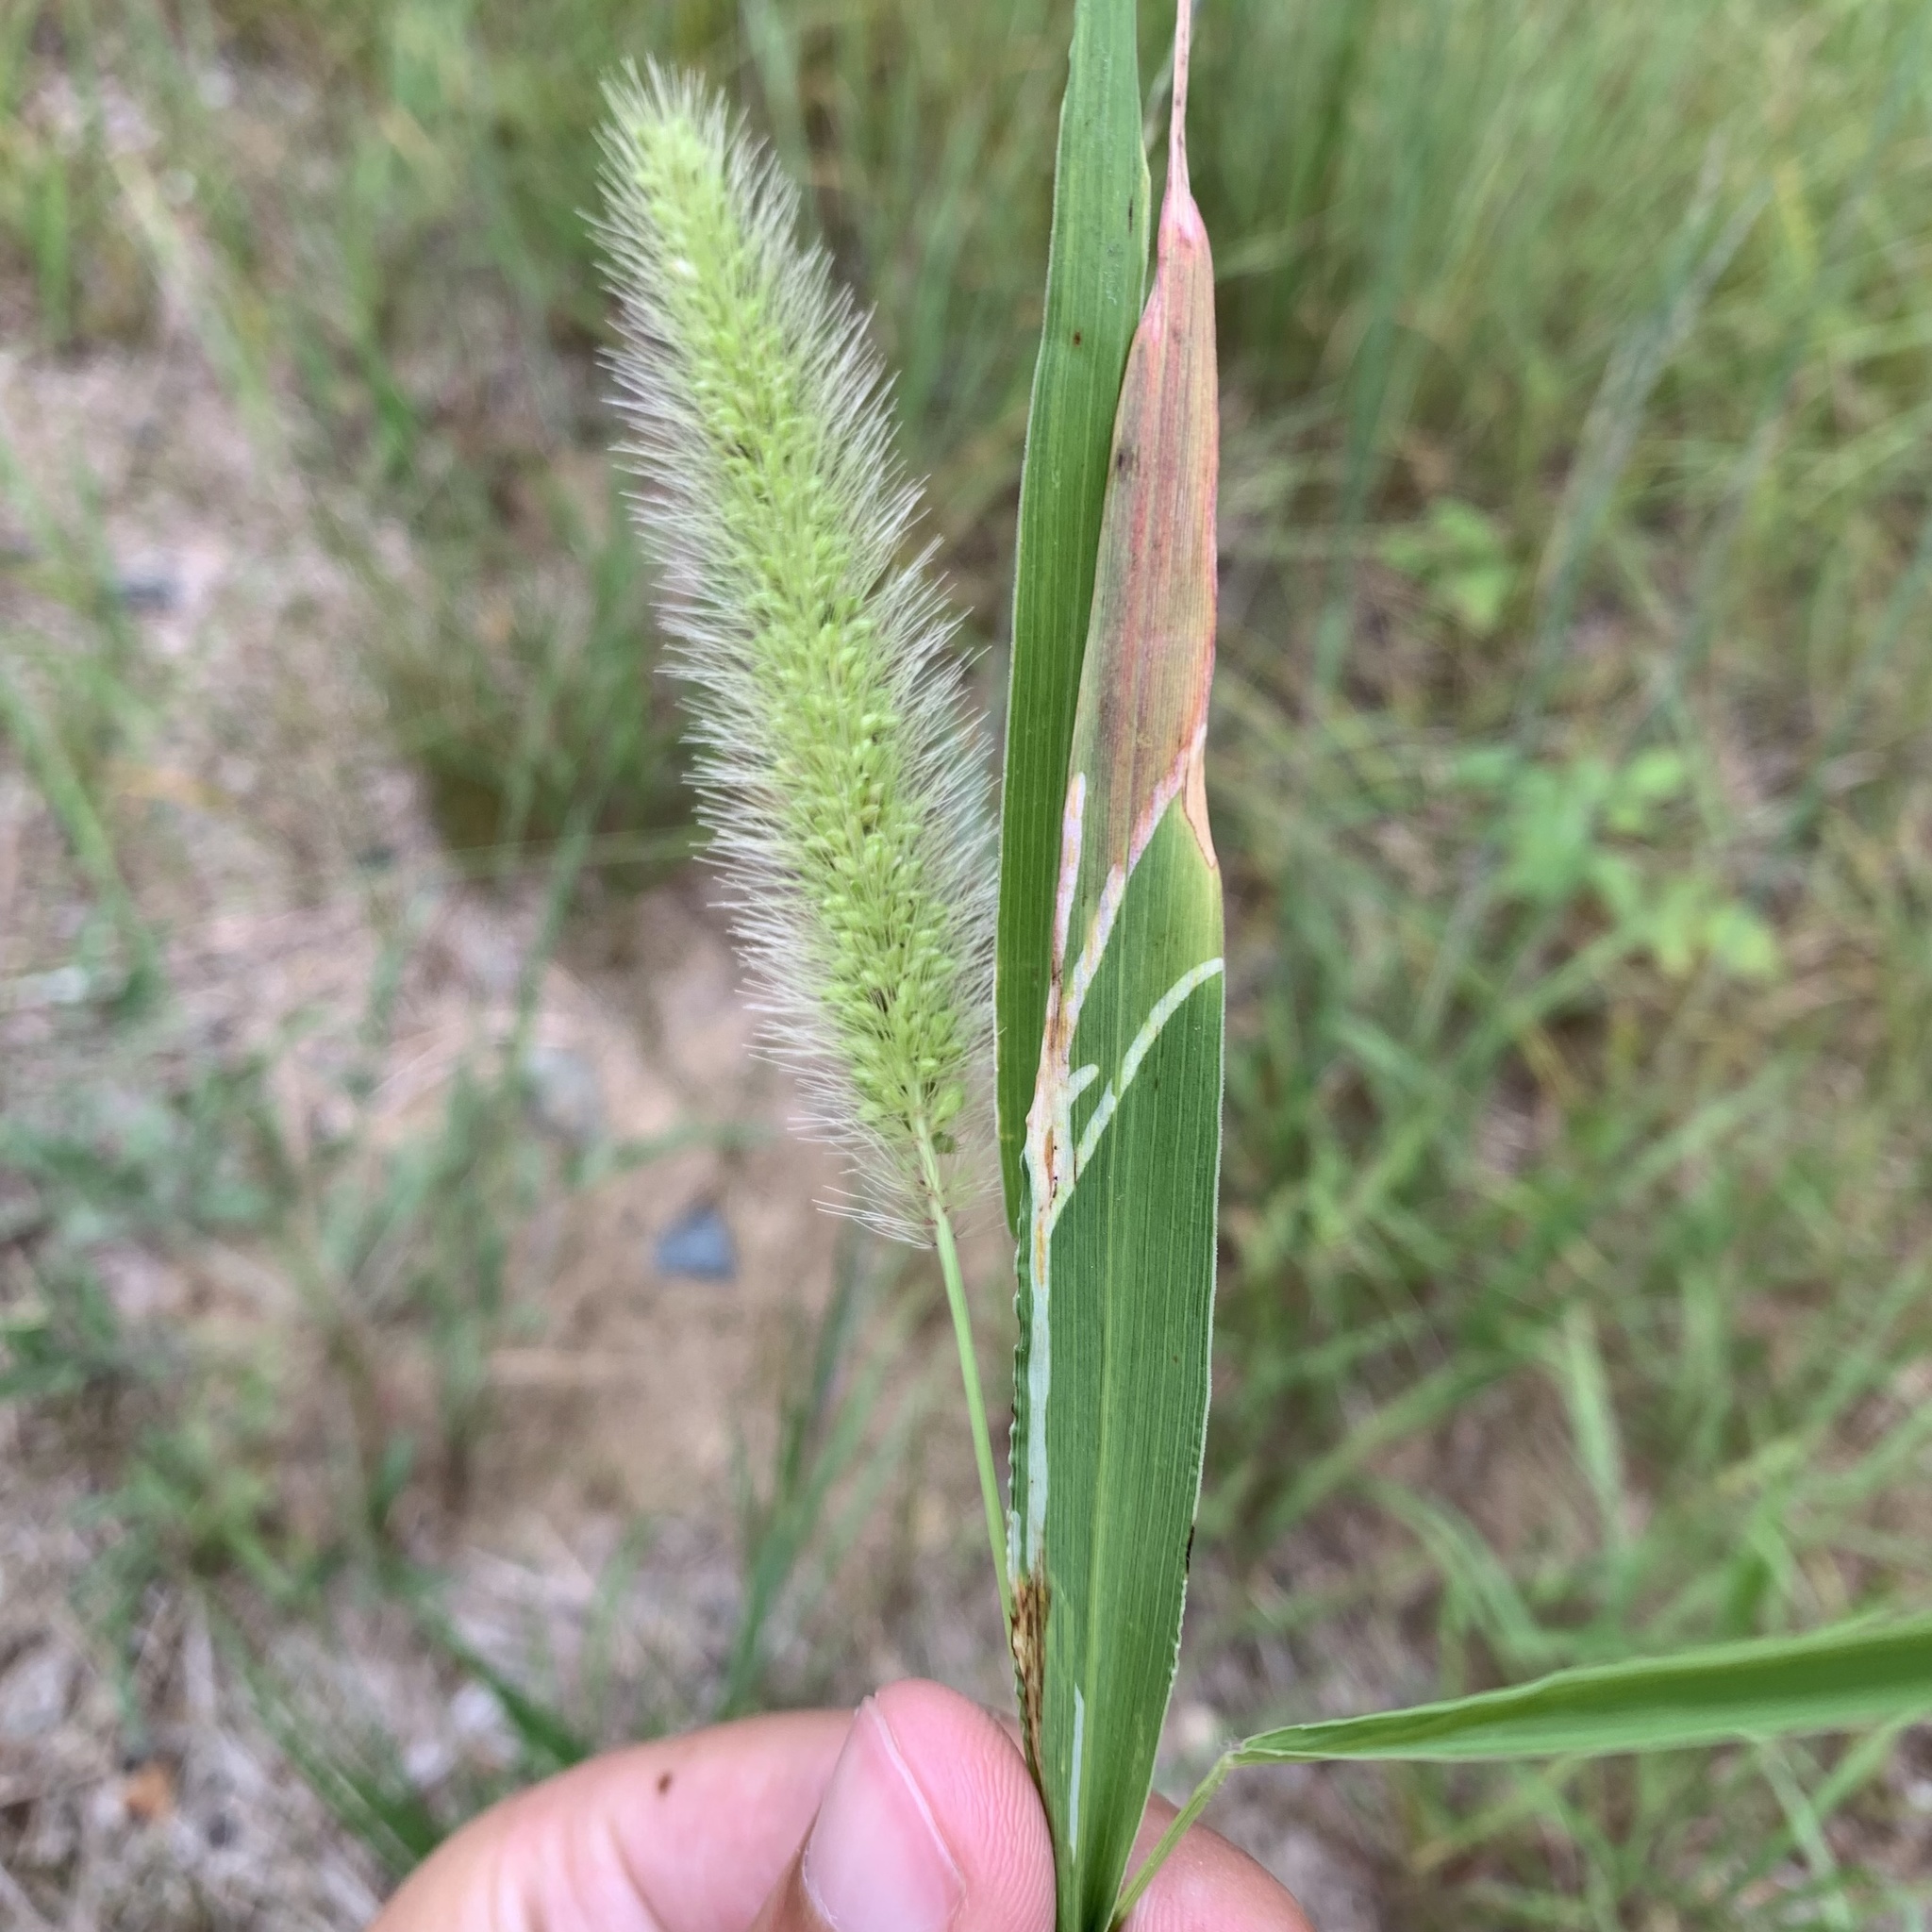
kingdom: Animalia
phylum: Arthropoda
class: Insecta
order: Diptera
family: Agromyzidae
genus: Cerodontha
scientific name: Cerodontha dorsalis
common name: Grass sheathminer fly
